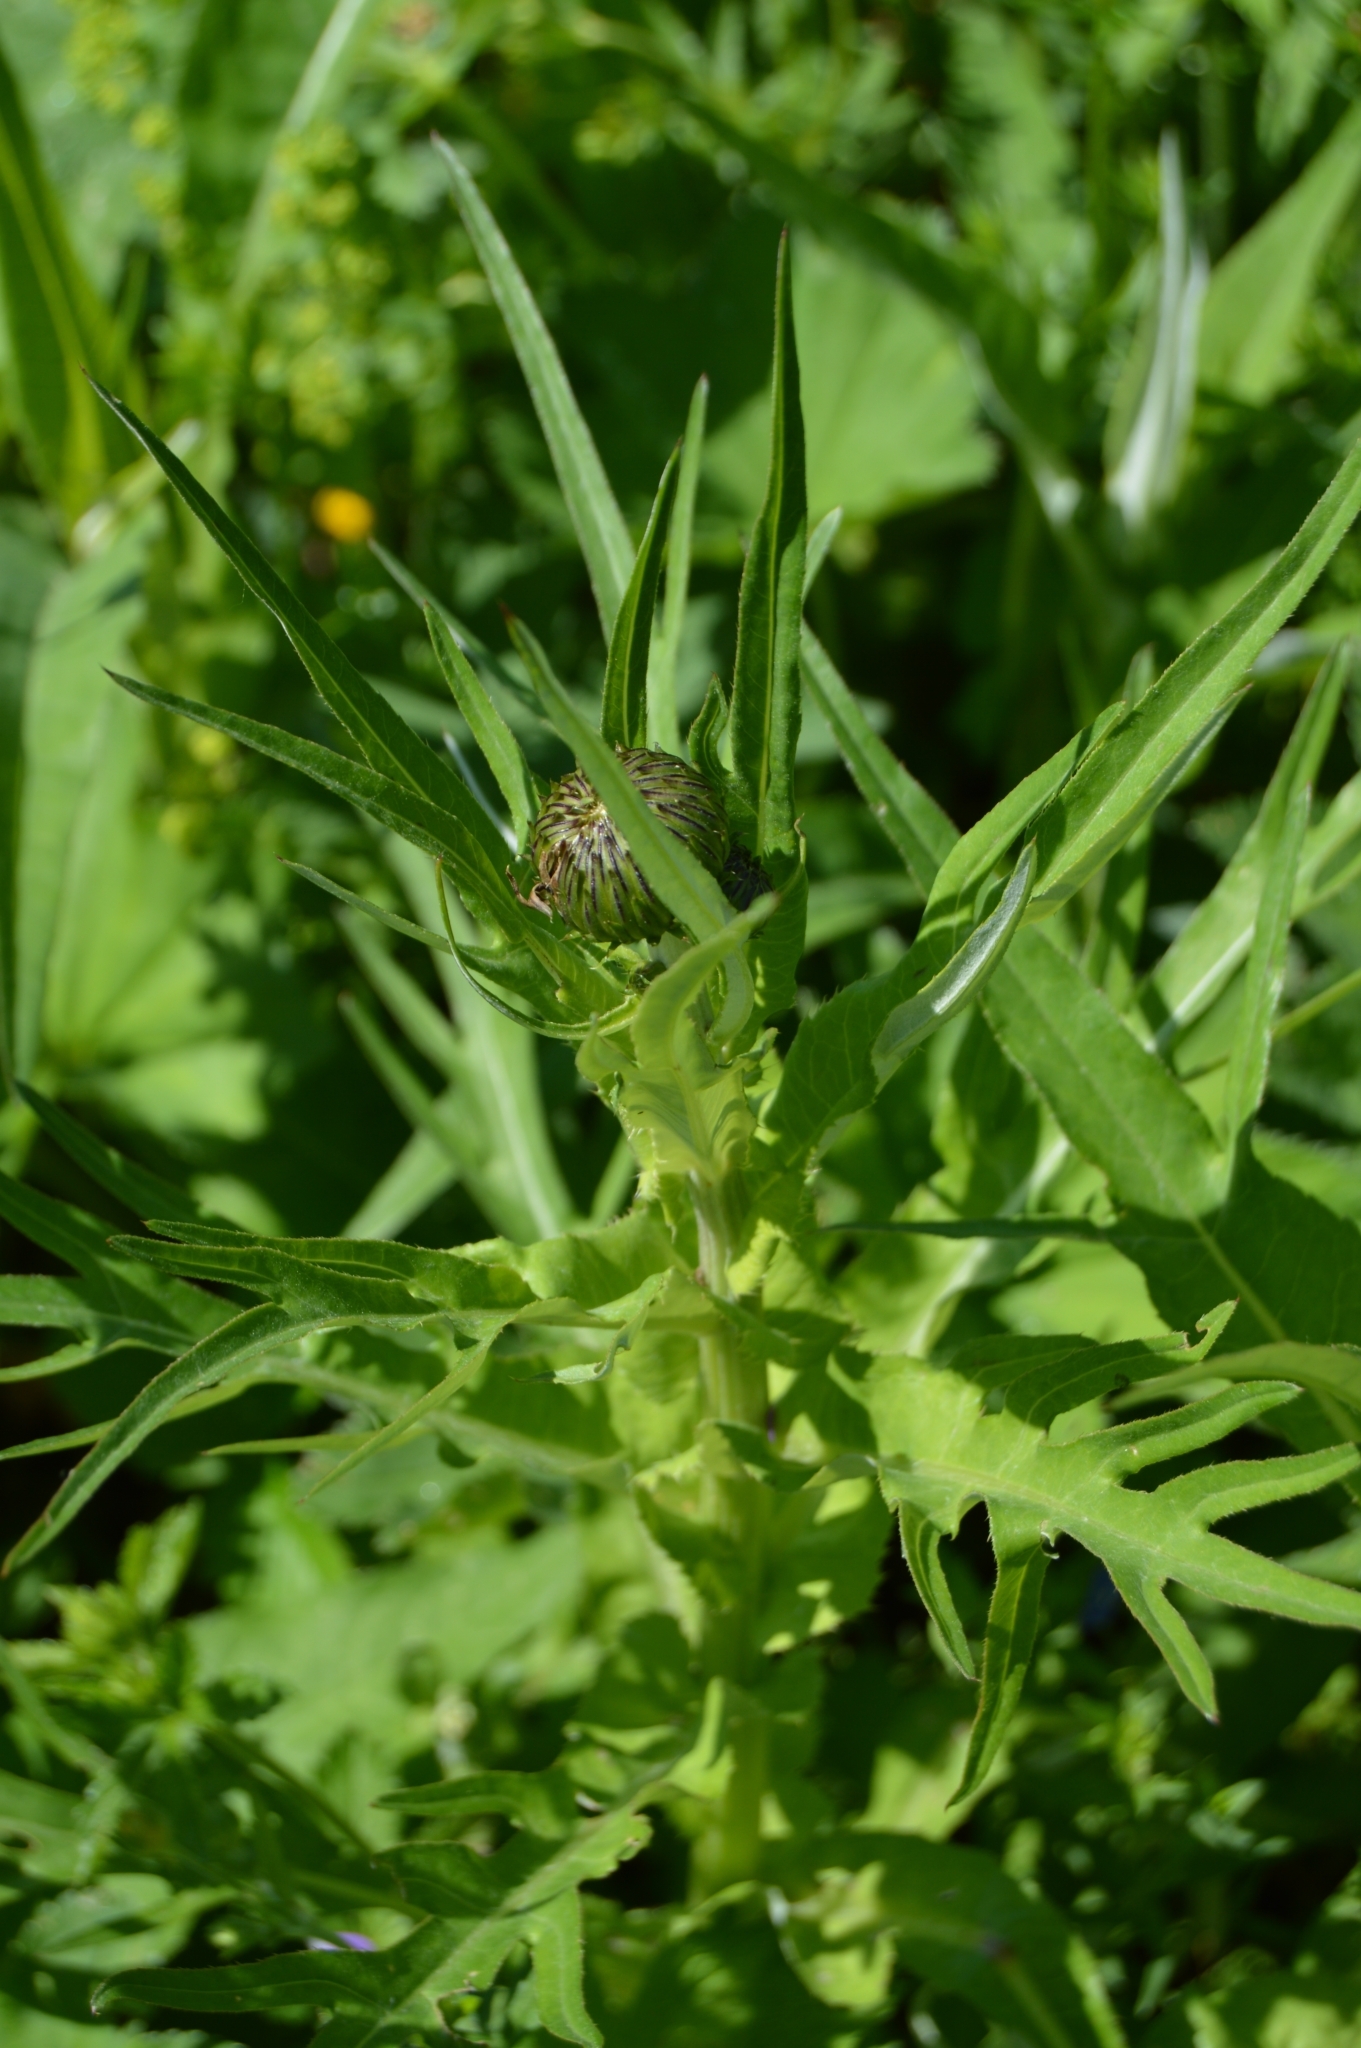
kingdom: Plantae
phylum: Tracheophyta
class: Magnoliopsida
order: Asterales
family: Asteraceae
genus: Cirsium
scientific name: Cirsium heterophyllum
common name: Melancholy thistle
